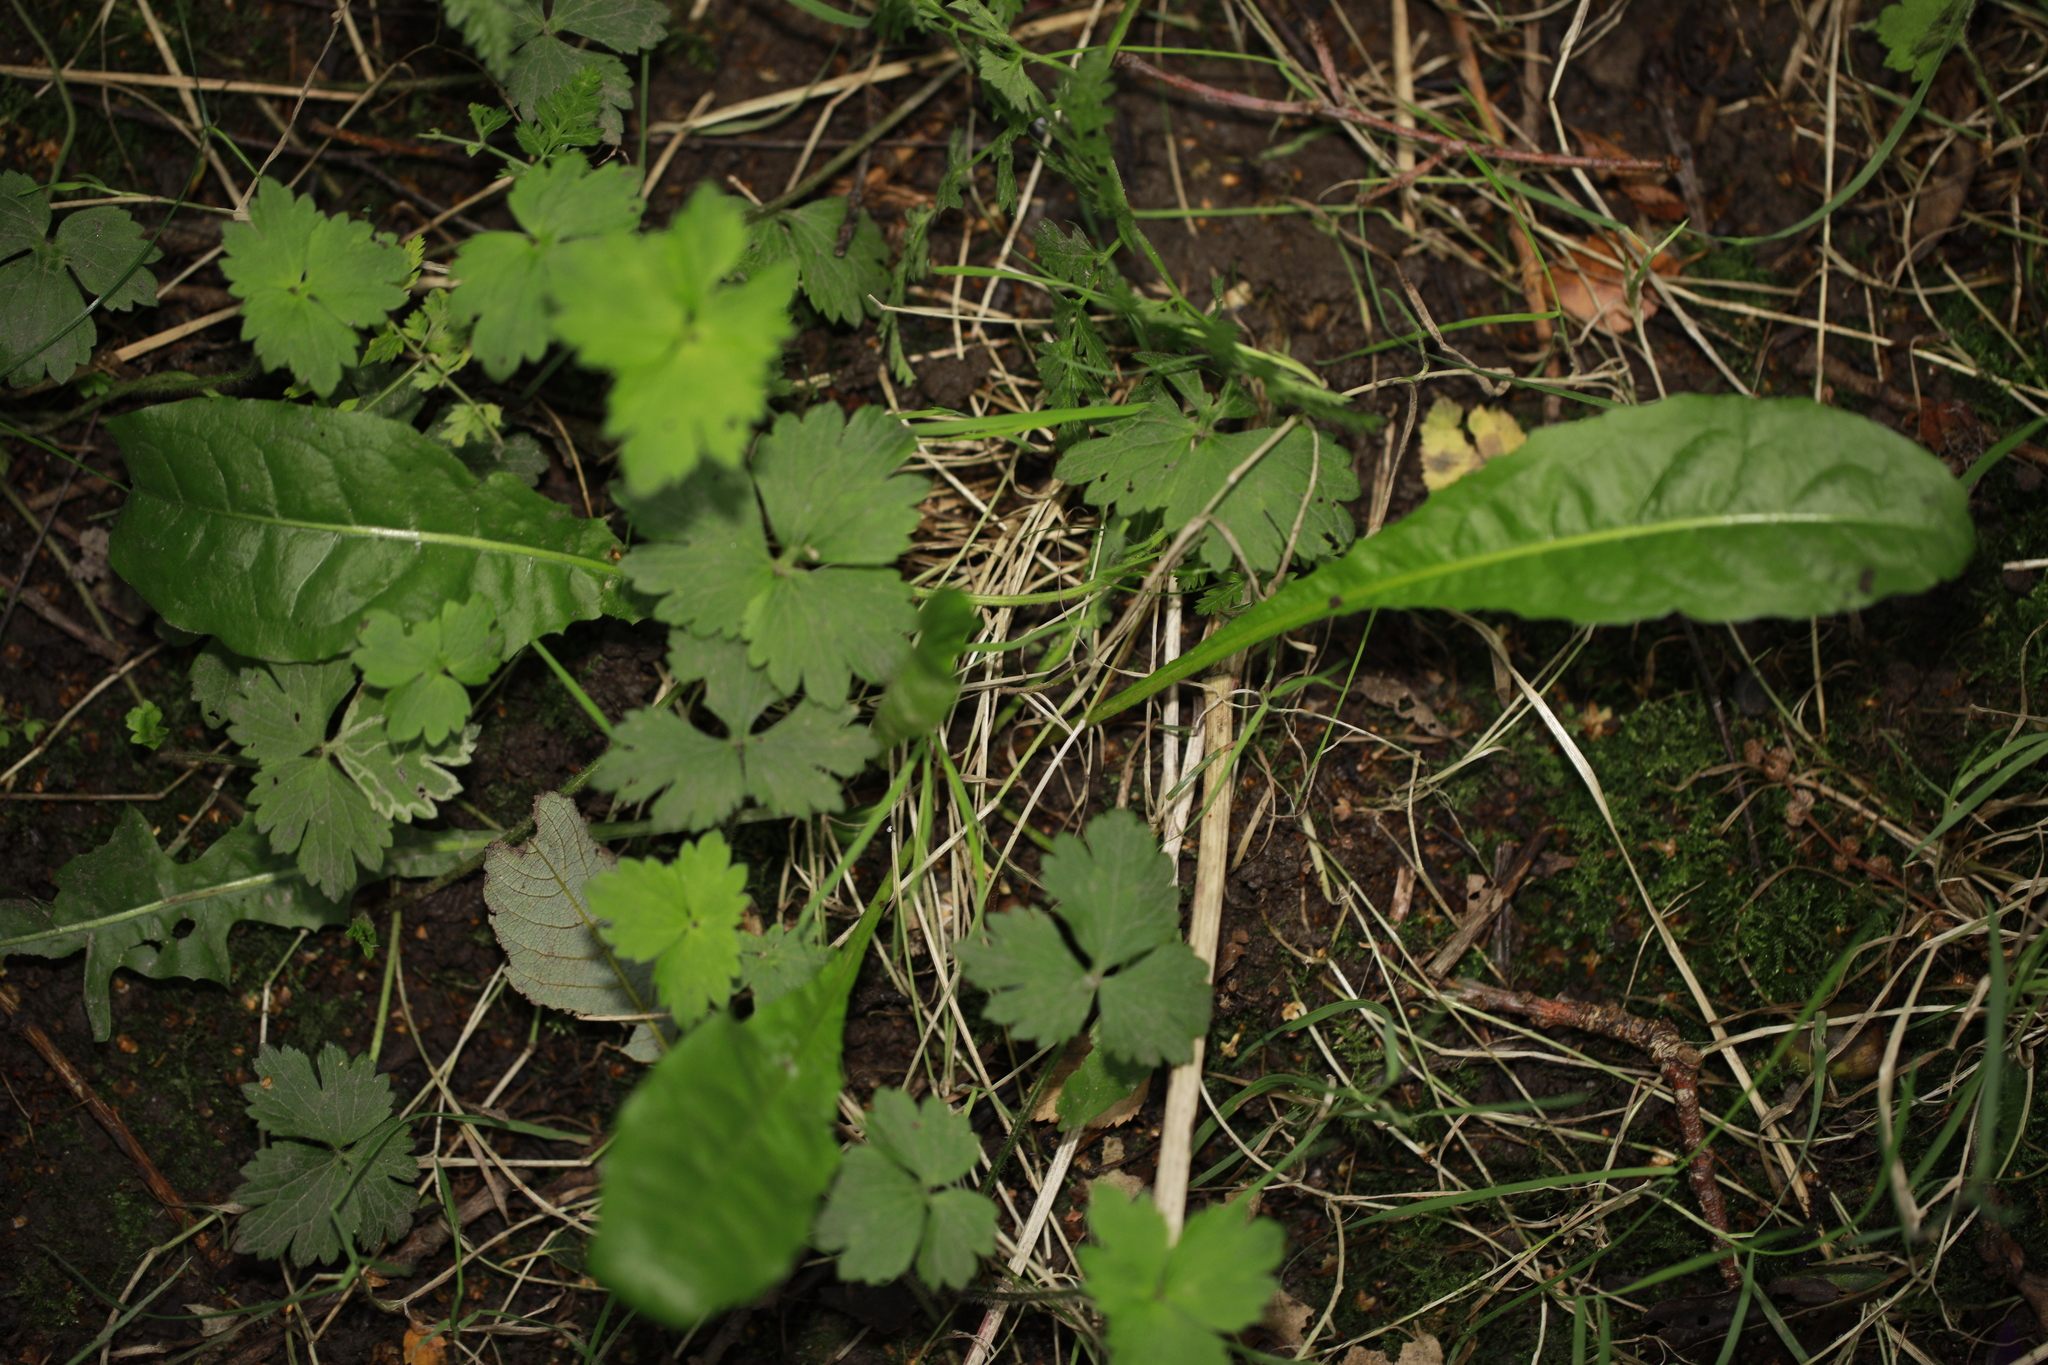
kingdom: Plantae
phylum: Tracheophyta
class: Magnoliopsida
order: Asterales
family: Asteraceae
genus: Taraxacum
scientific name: Taraxacum officinale
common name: Common dandelion
